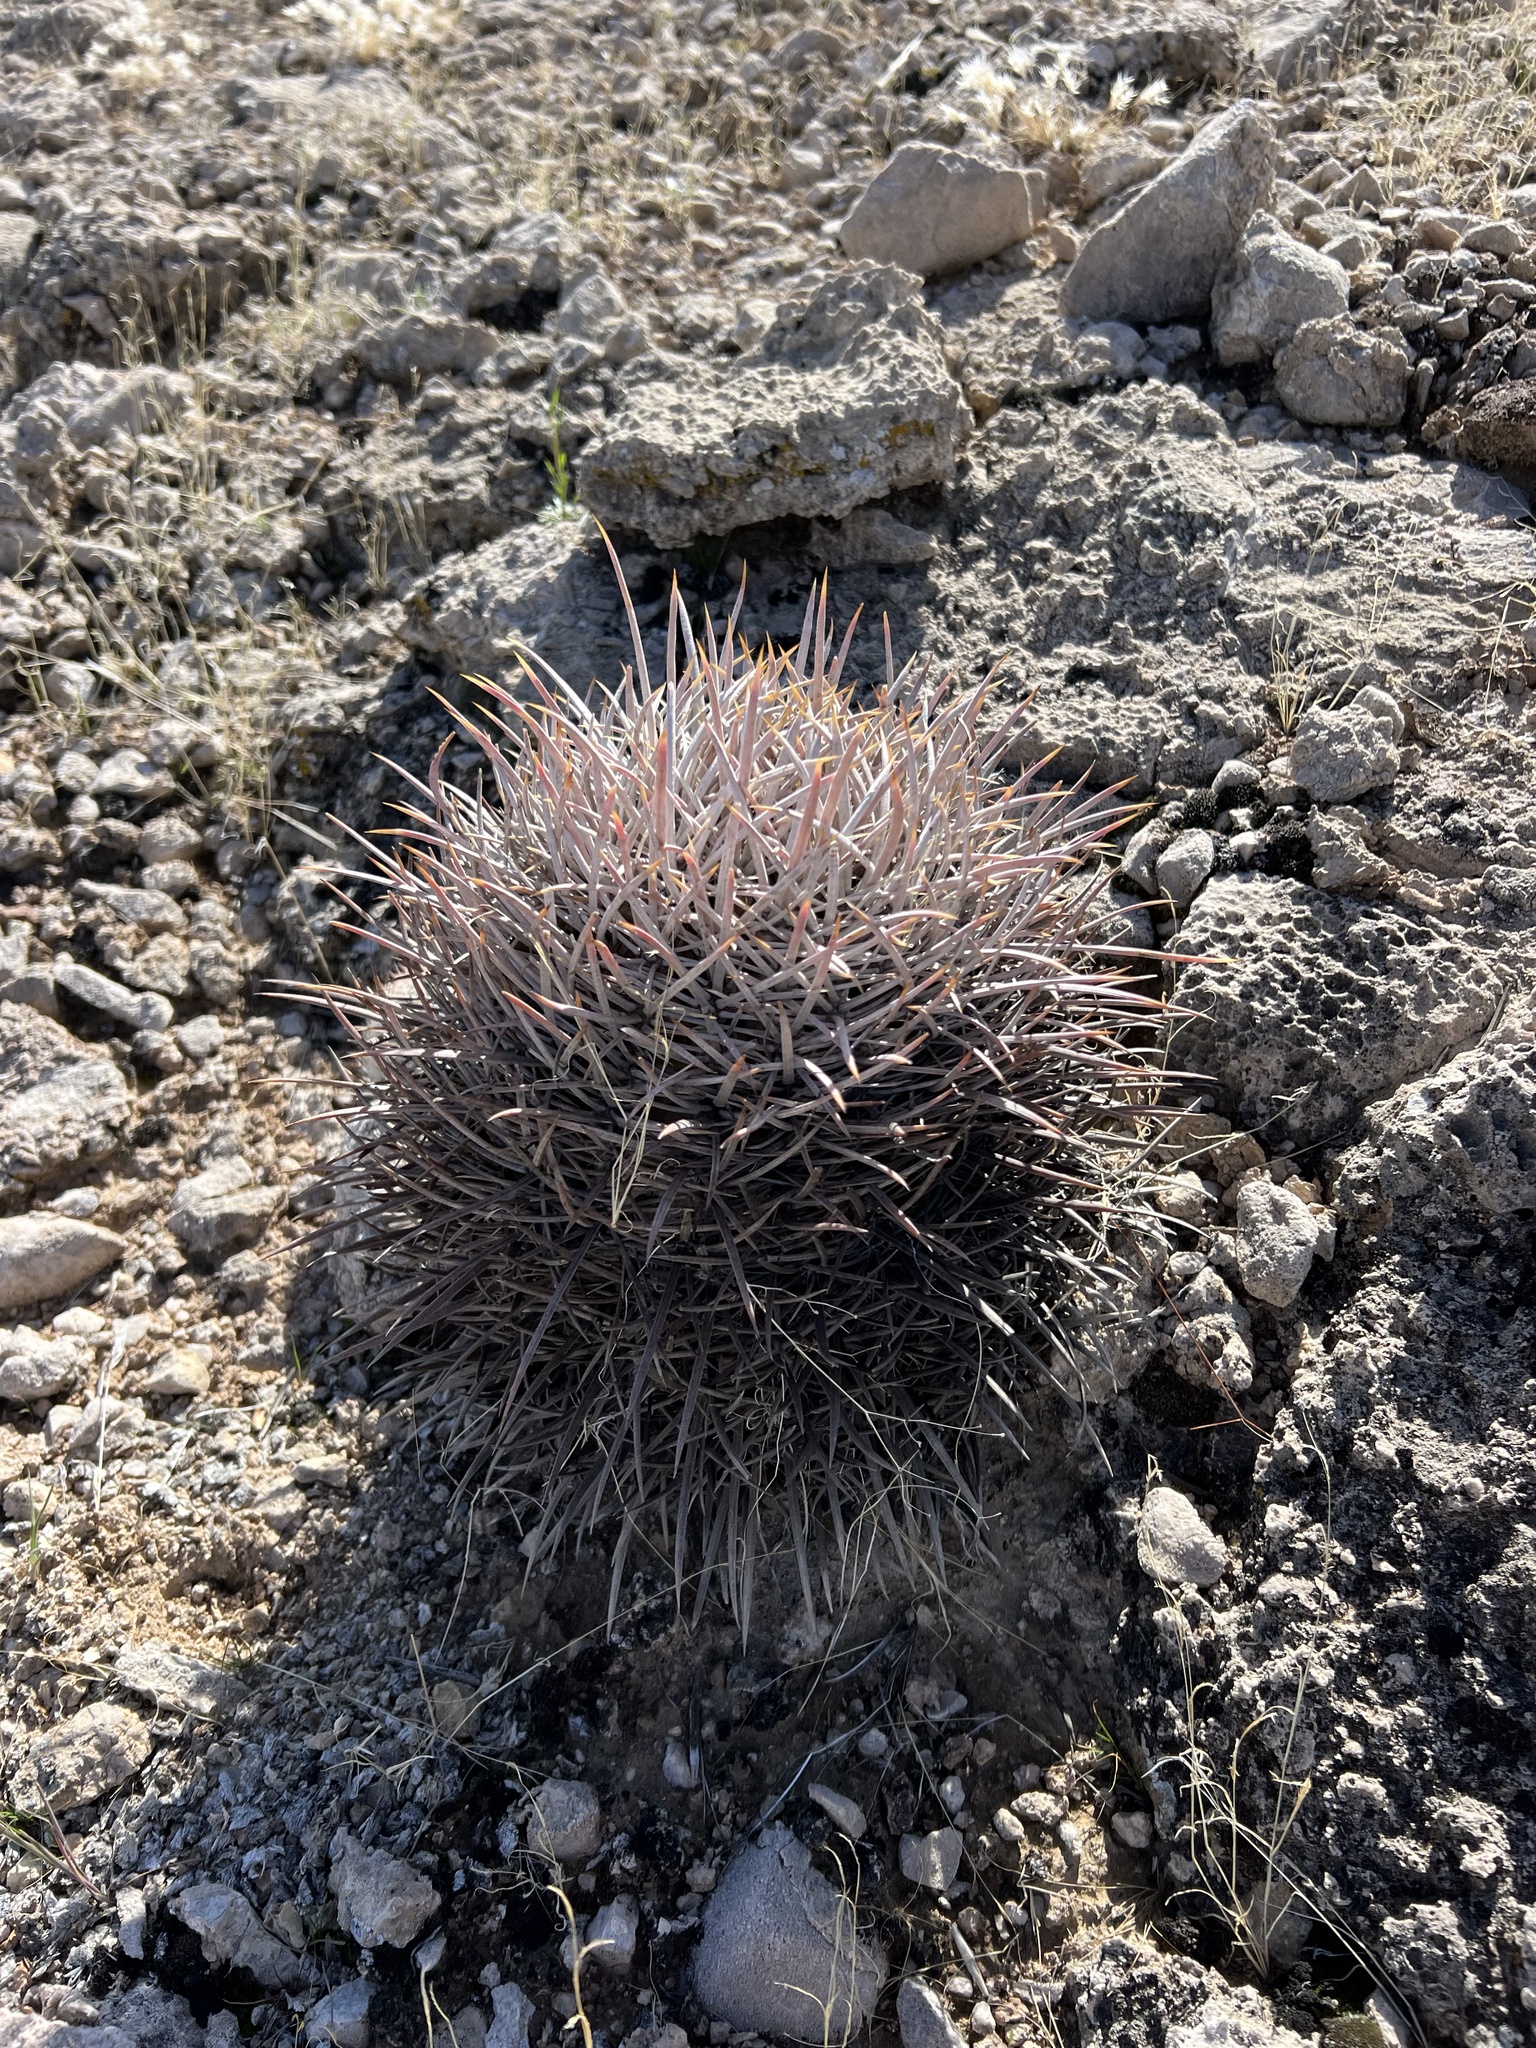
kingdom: Plantae
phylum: Tracheophyta
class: Magnoliopsida
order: Caryophyllales
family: Cactaceae
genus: Echinocactus
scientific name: Echinocactus polycephalus
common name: Cottontop cactus
